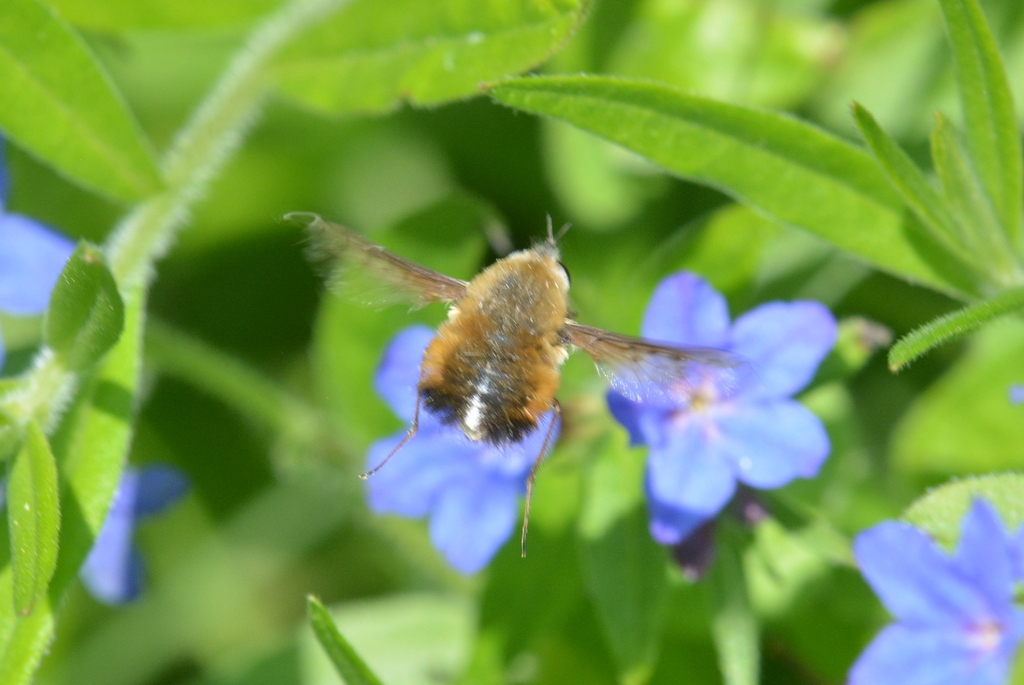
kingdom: Animalia
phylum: Arthropoda
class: Insecta
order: Diptera
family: Bombyliidae
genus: Bombylius
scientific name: Bombylius discolor
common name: Dotted bee-fly
